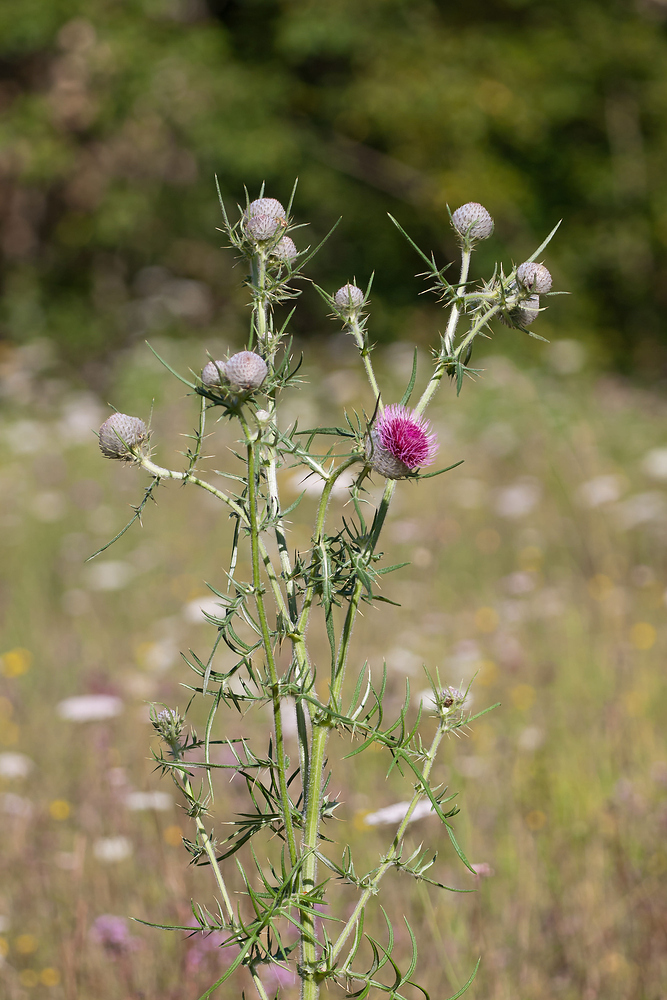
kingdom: Plantae
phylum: Tracheophyta
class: Magnoliopsida
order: Asterales
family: Asteraceae
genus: Lophiolepis
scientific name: Lophiolepis eriophora
